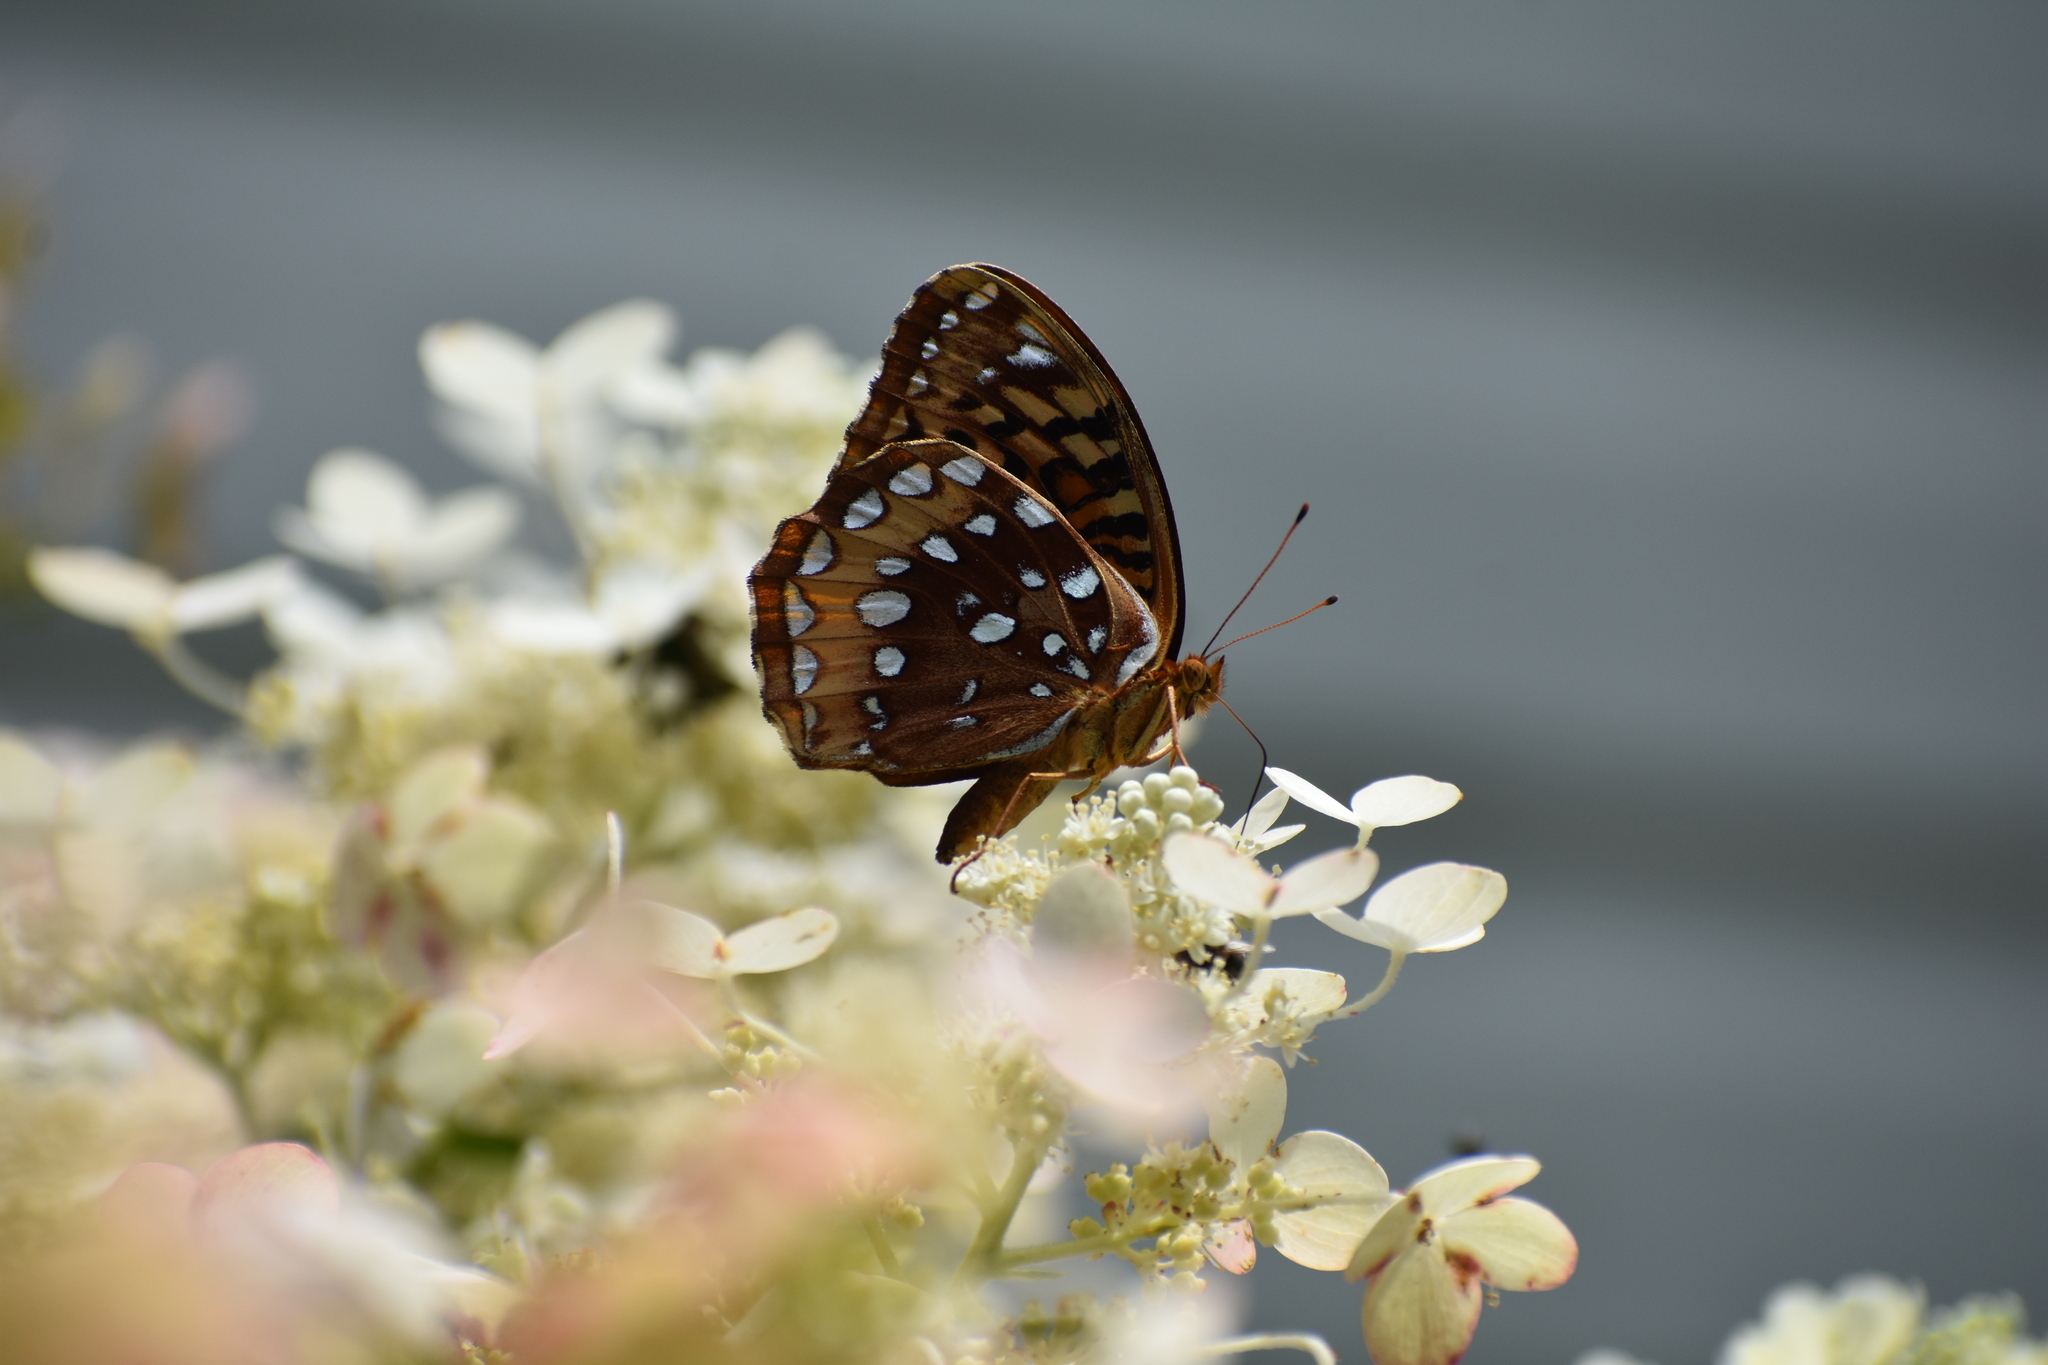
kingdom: Animalia
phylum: Arthropoda
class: Insecta
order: Lepidoptera
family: Nymphalidae
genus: Speyeria
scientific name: Speyeria cybele
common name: Great spangled fritillary
